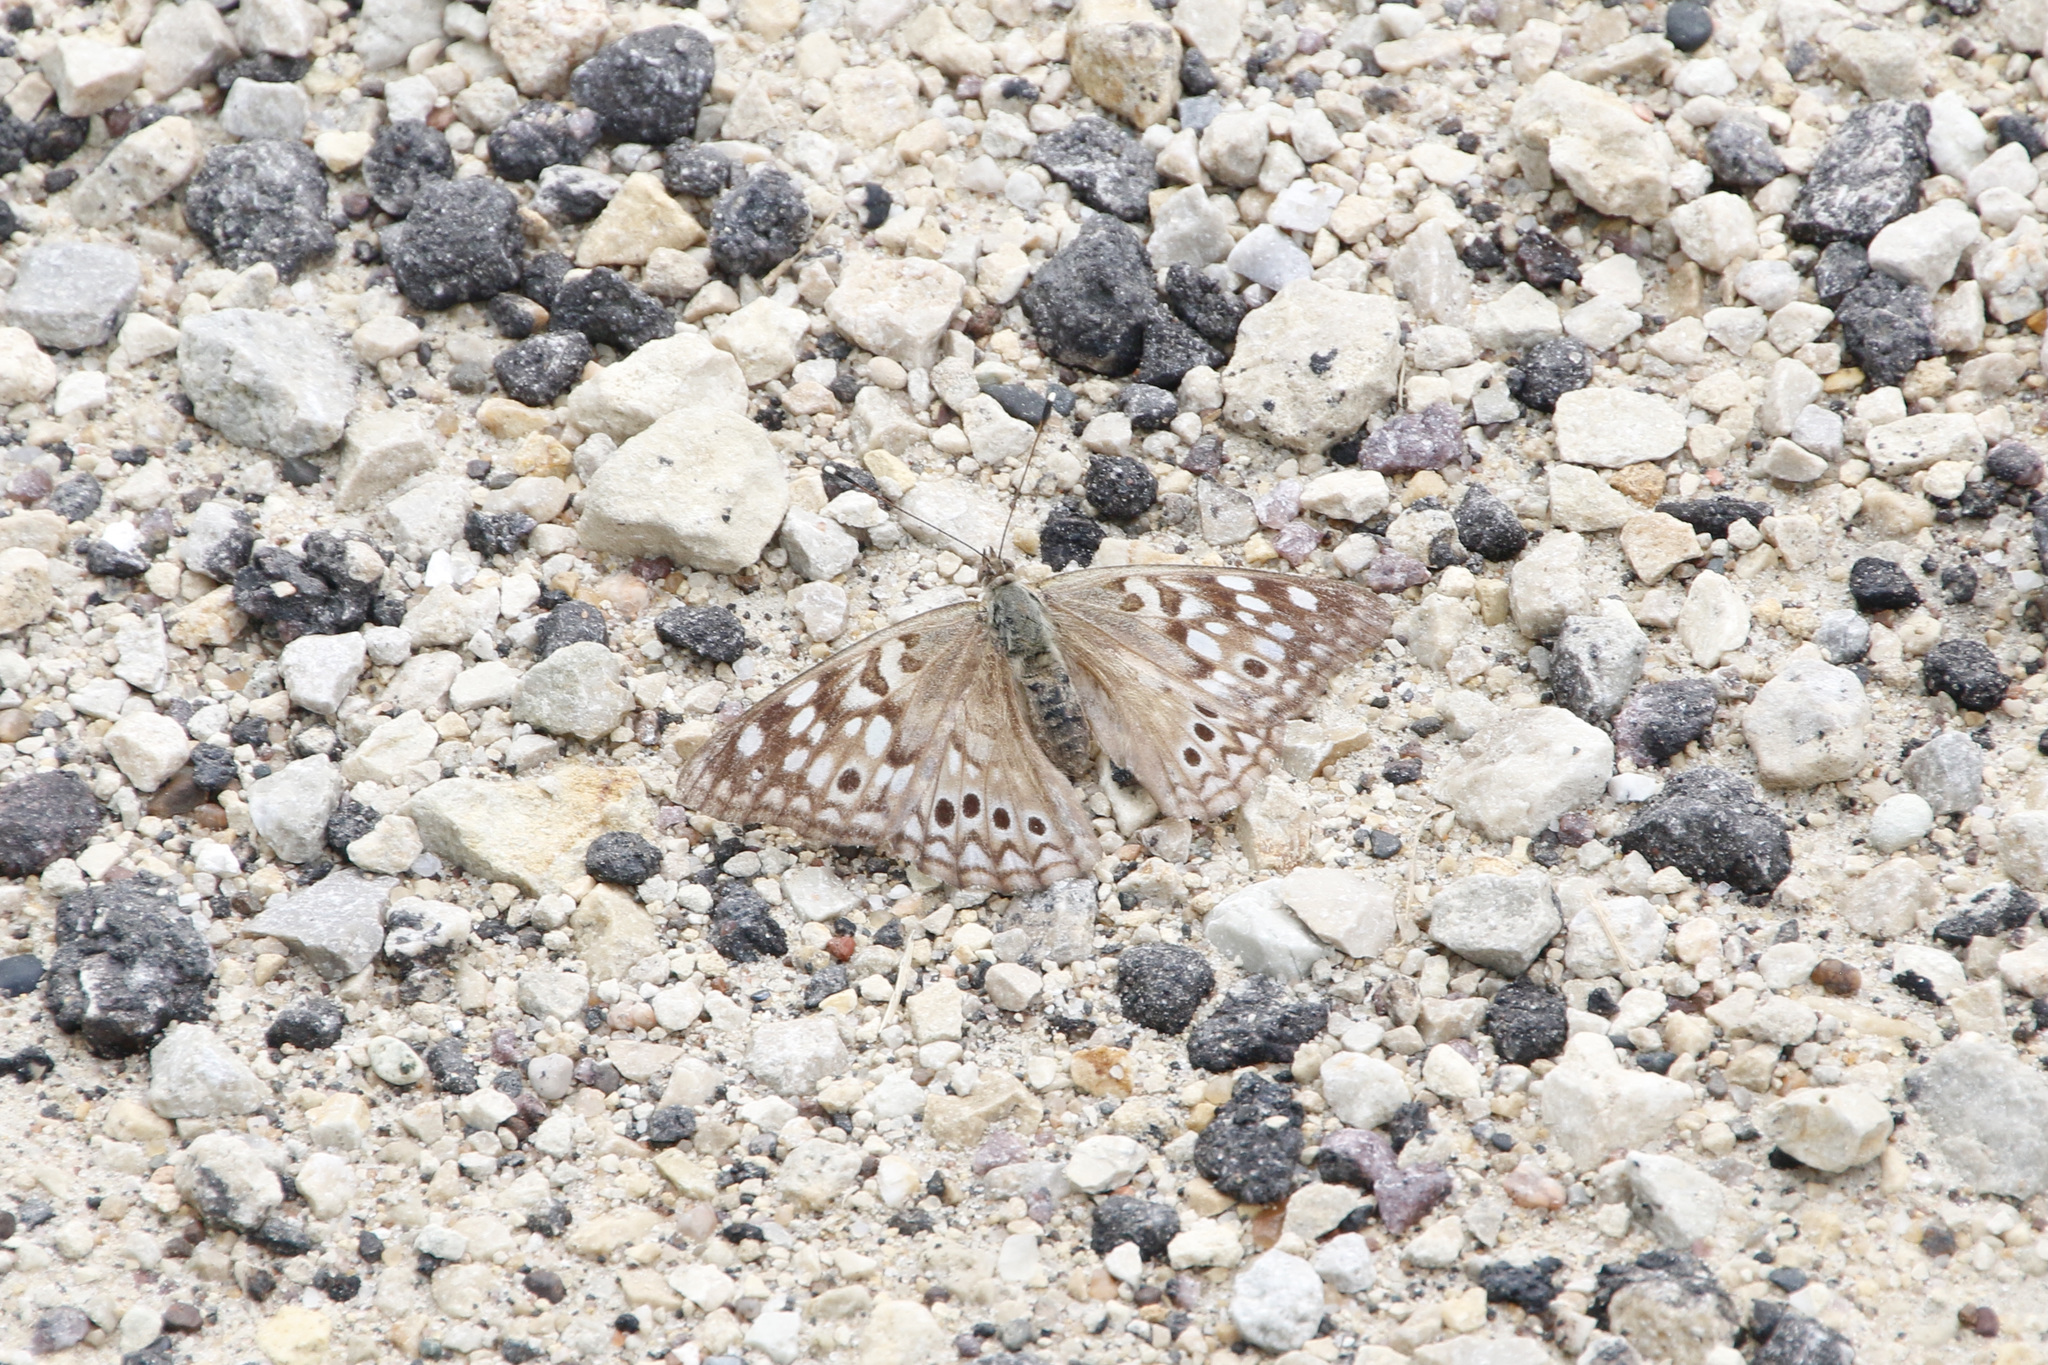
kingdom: Animalia
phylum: Arthropoda
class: Insecta
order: Lepidoptera
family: Nymphalidae
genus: Asterocampa
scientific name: Asterocampa celtis
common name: Hackberry emperor
